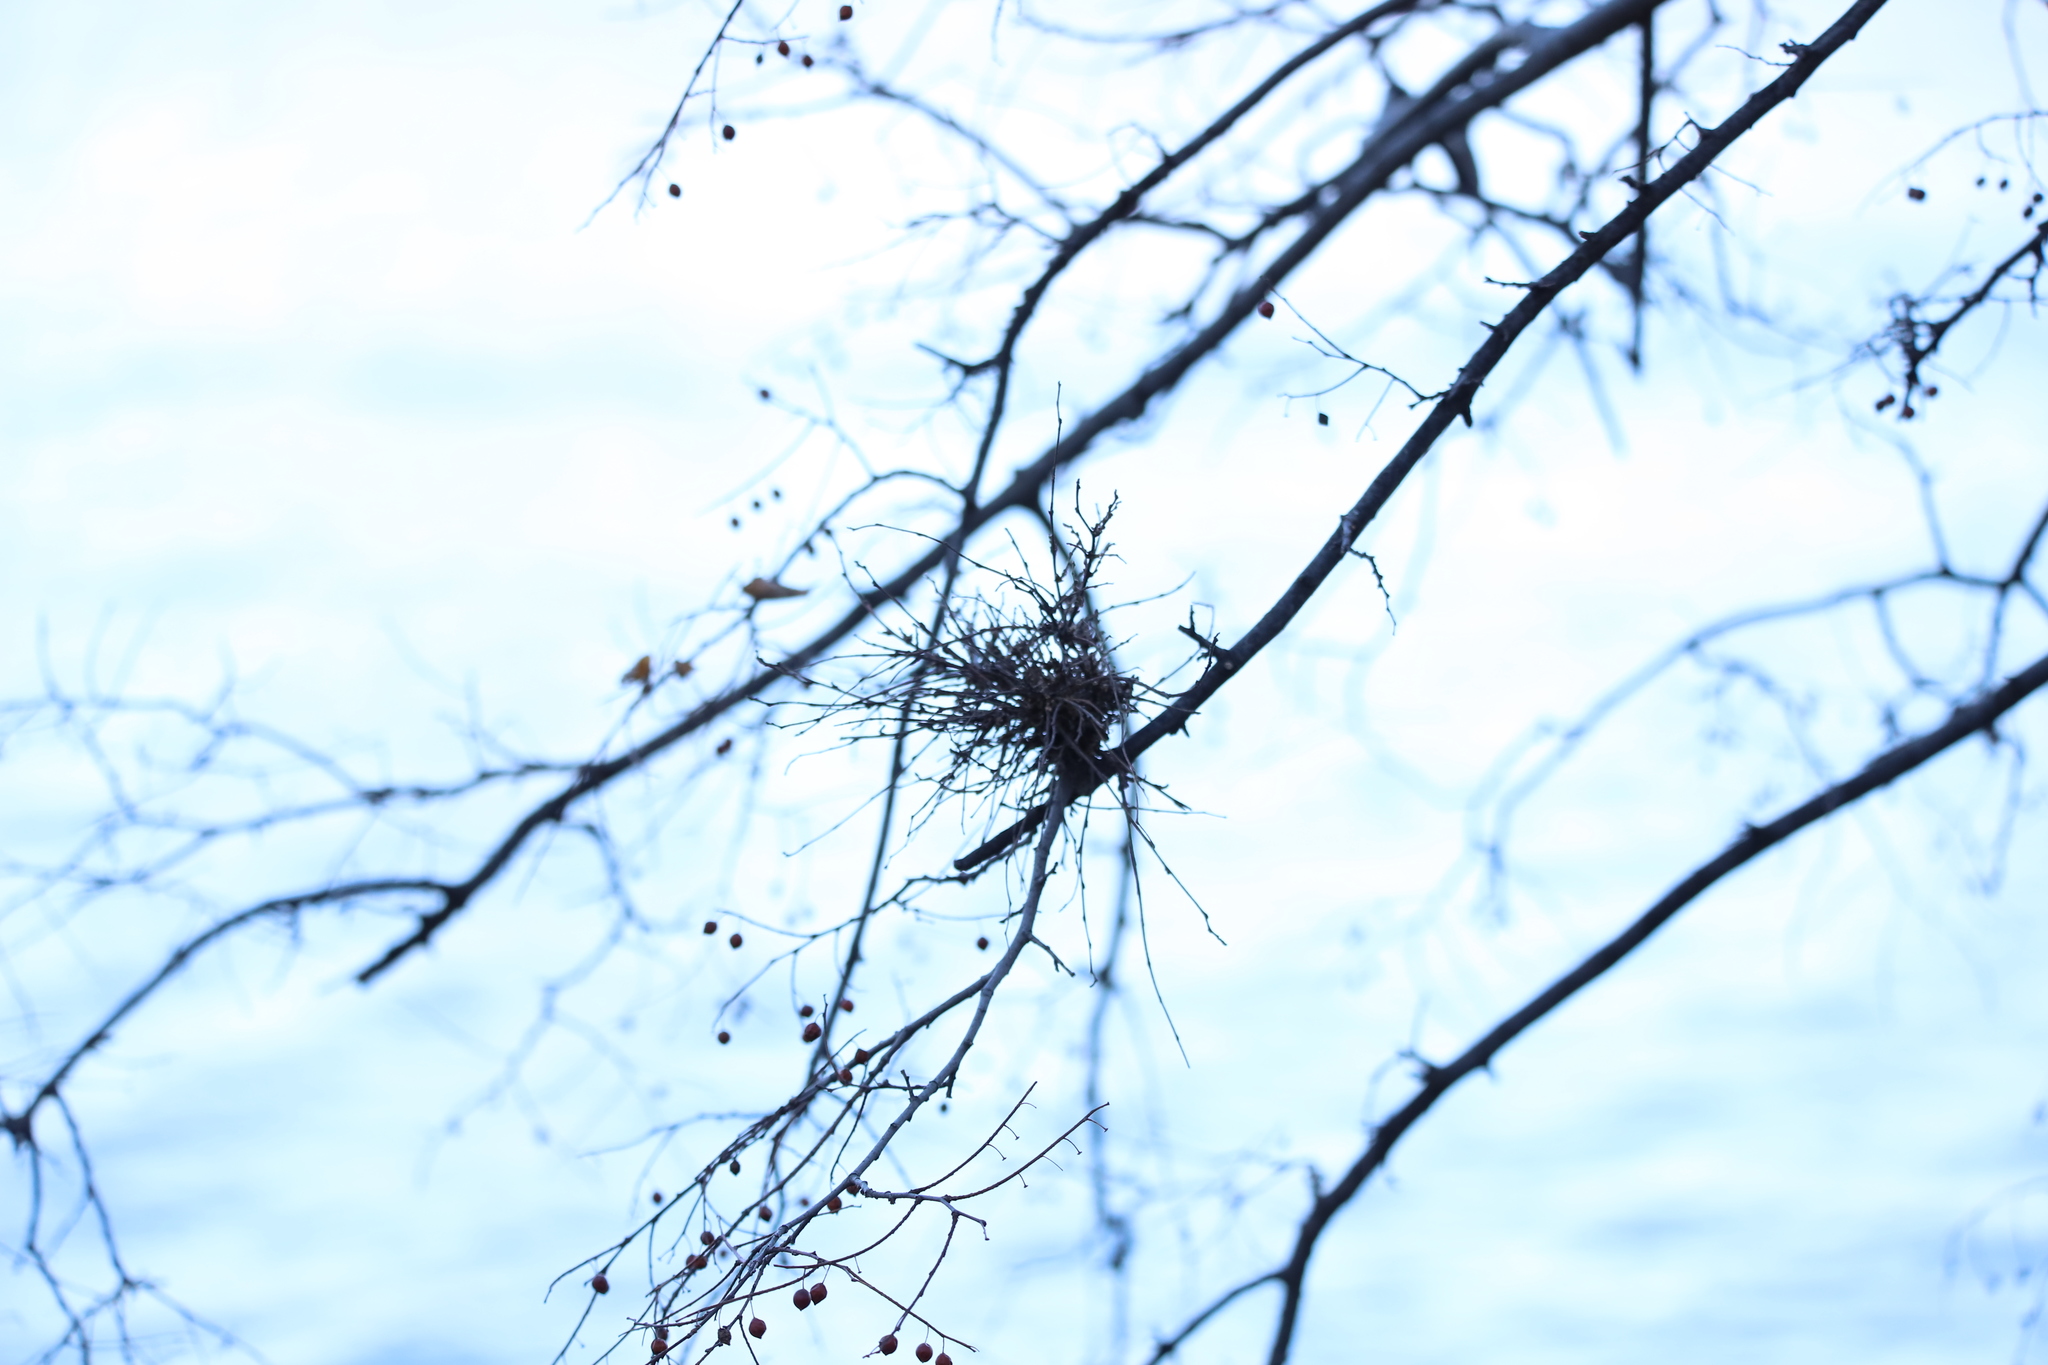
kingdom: Fungi
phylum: Ascomycota
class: Leotiomycetes
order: Helotiales
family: Erysiphaceae
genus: Podosphaera
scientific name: Podosphaera phytoptophila
